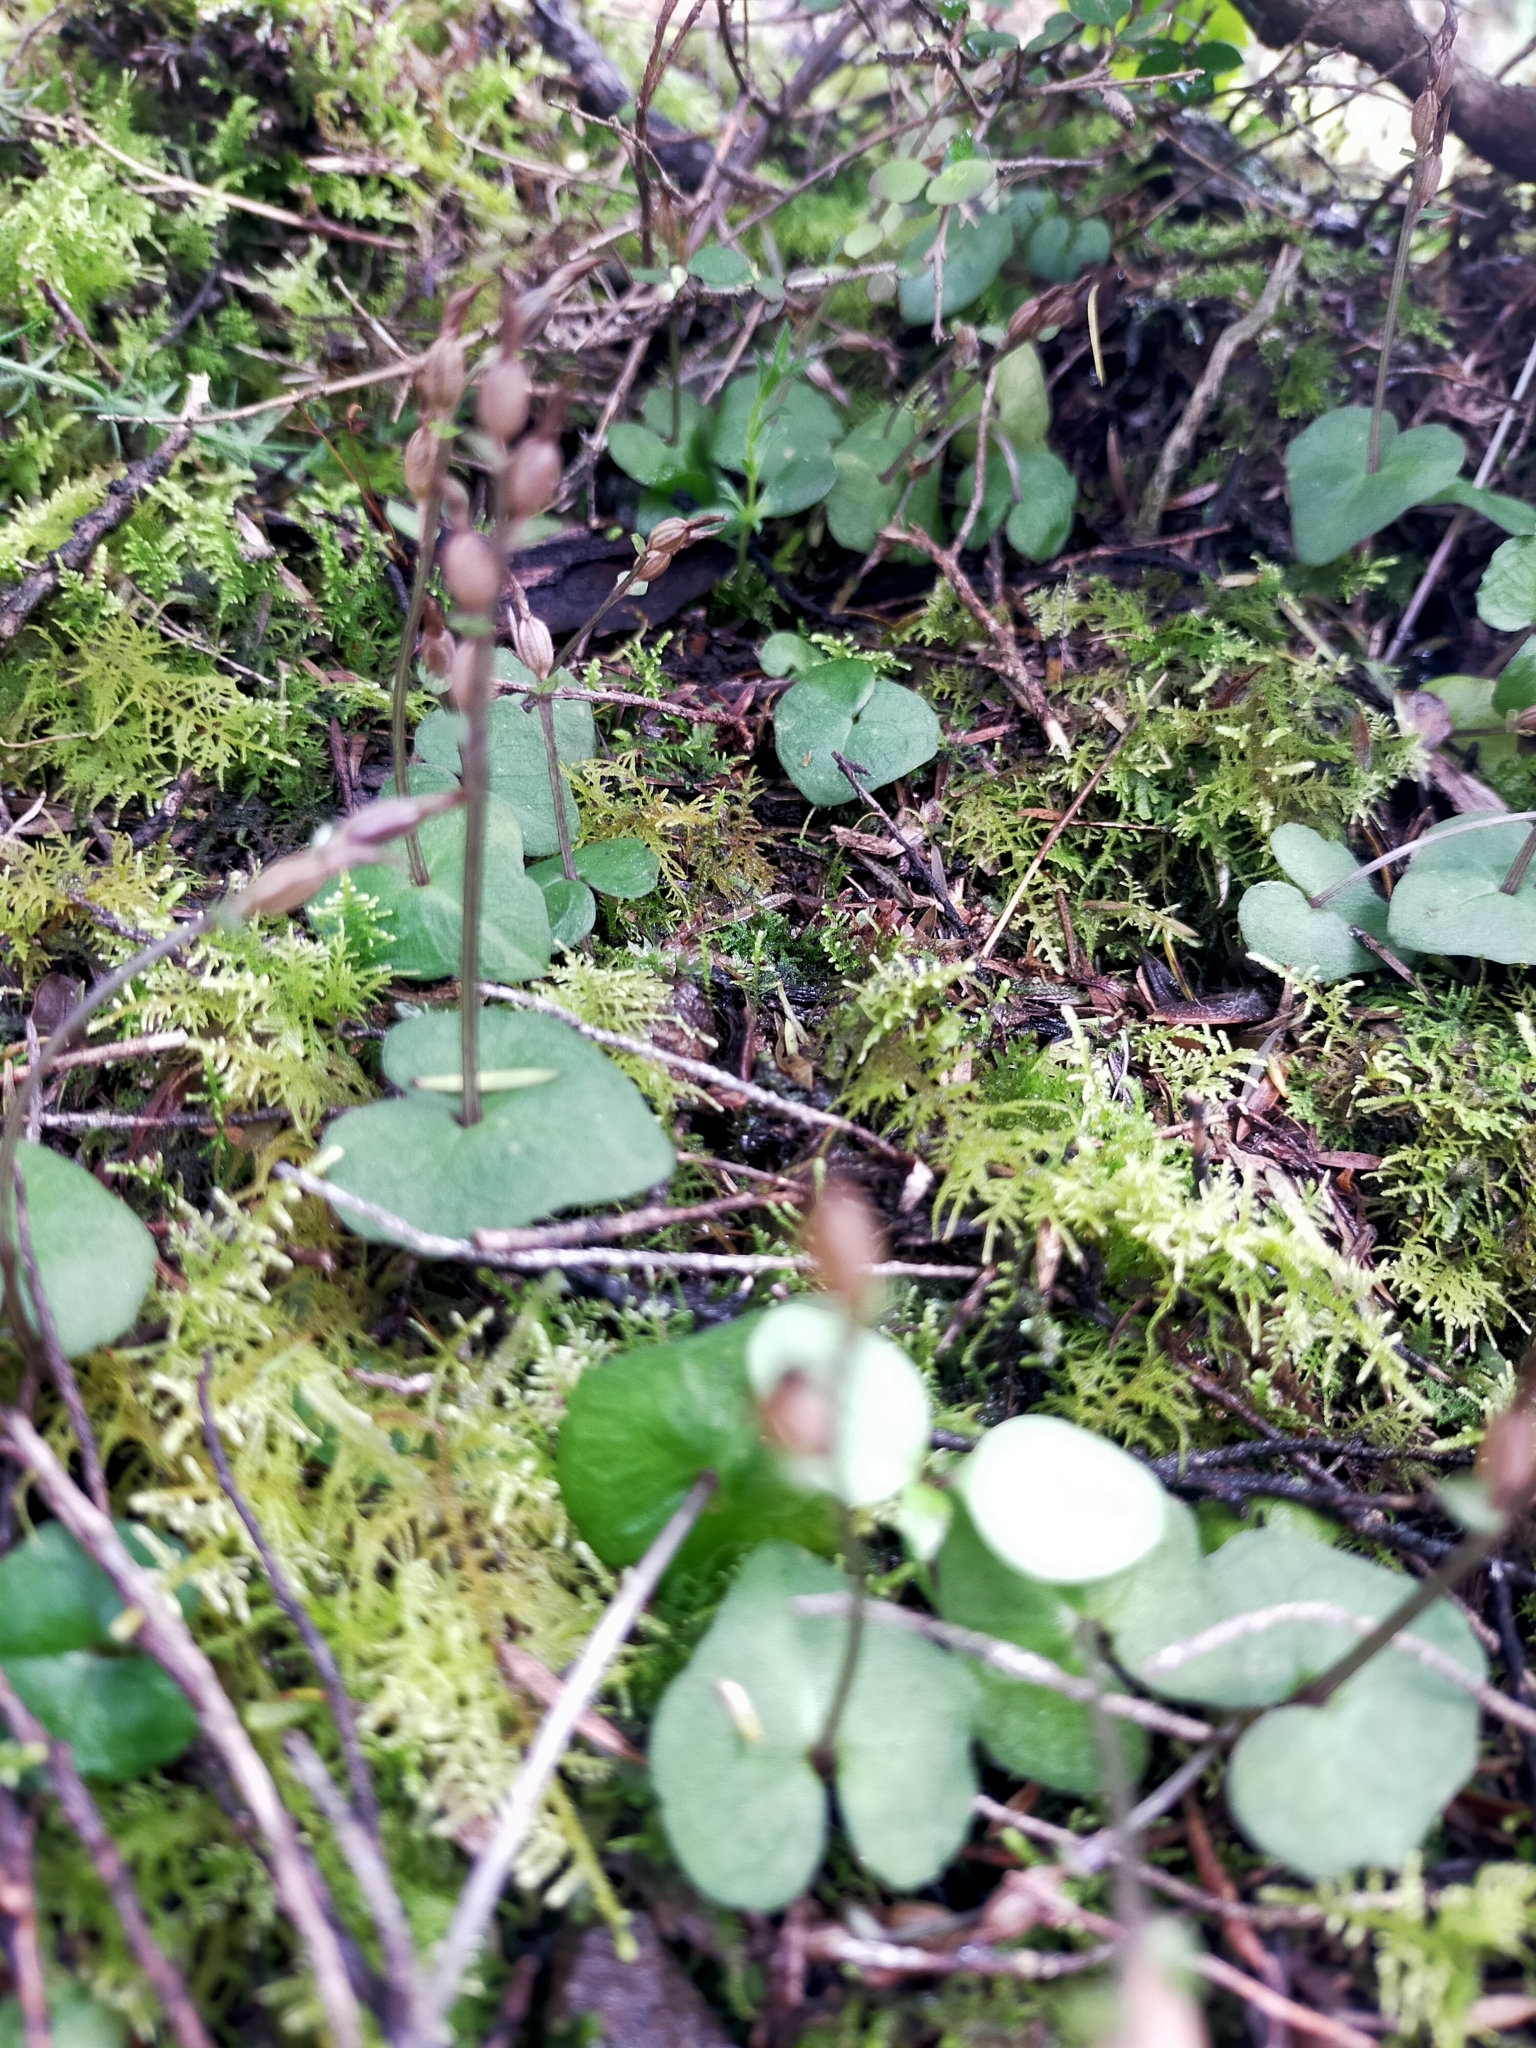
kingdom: Plantae
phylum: Tracheophyta
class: Liliopsida
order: Asparagales
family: Orchidaceae
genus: Acianthus
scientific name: Acianthus sinclairii
